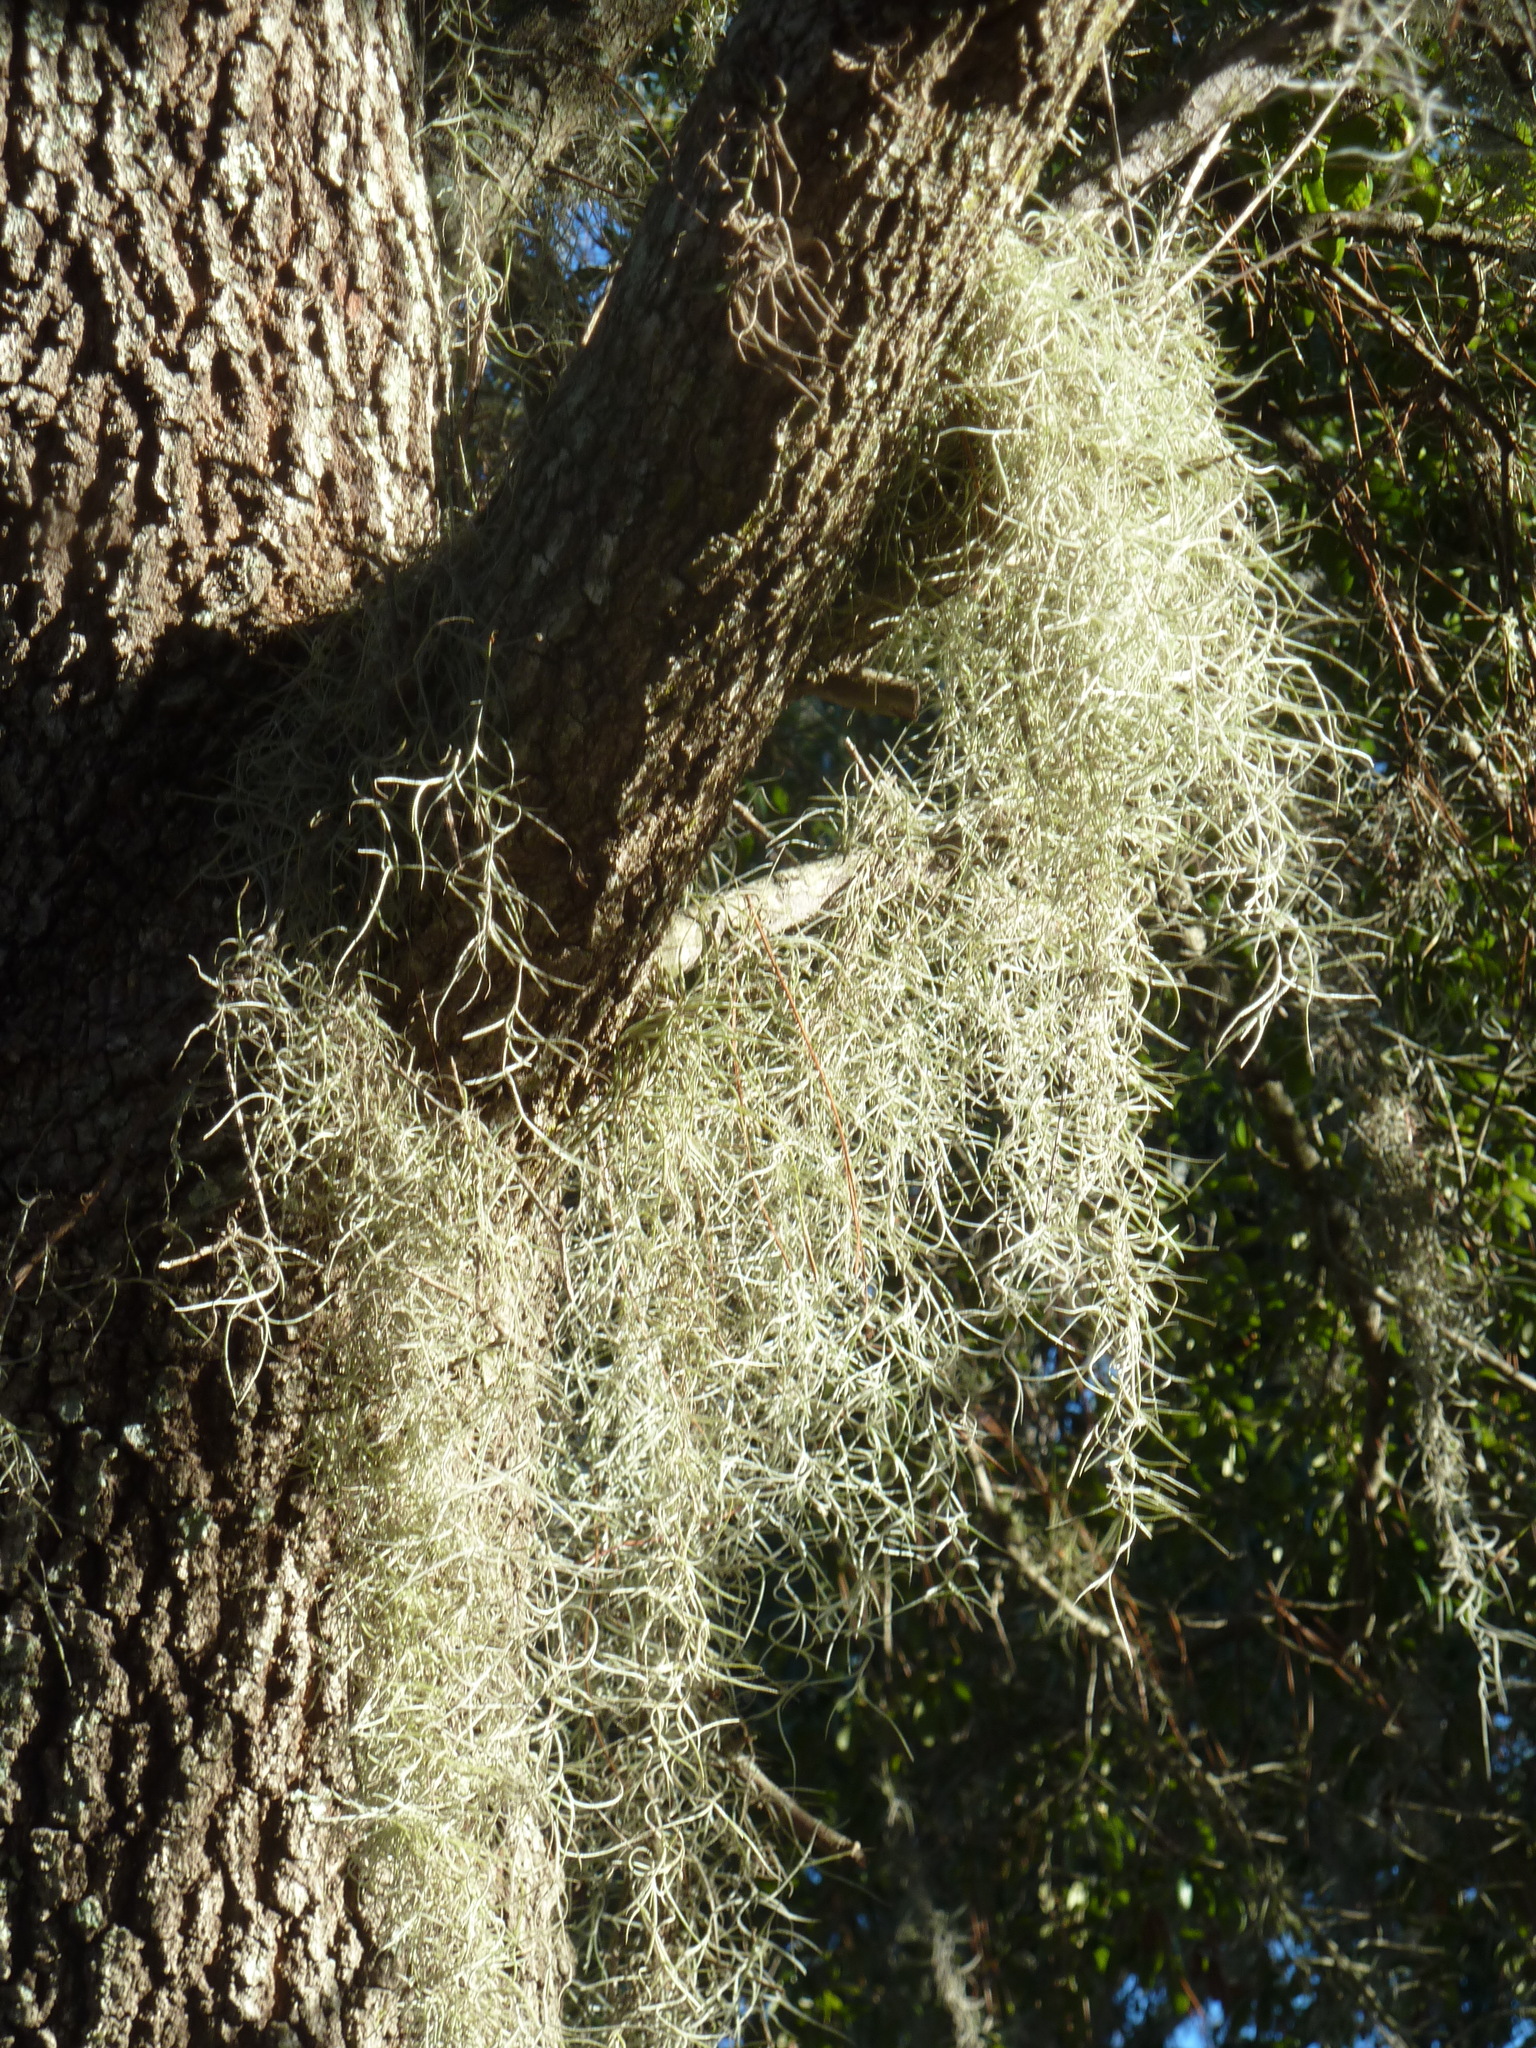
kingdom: Plantae
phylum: Tracheophyta
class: Liliopsida
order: Poales
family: Bromeliaceae
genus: Tillandsia
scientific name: Tillandsia usneoides
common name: Spanish moss
